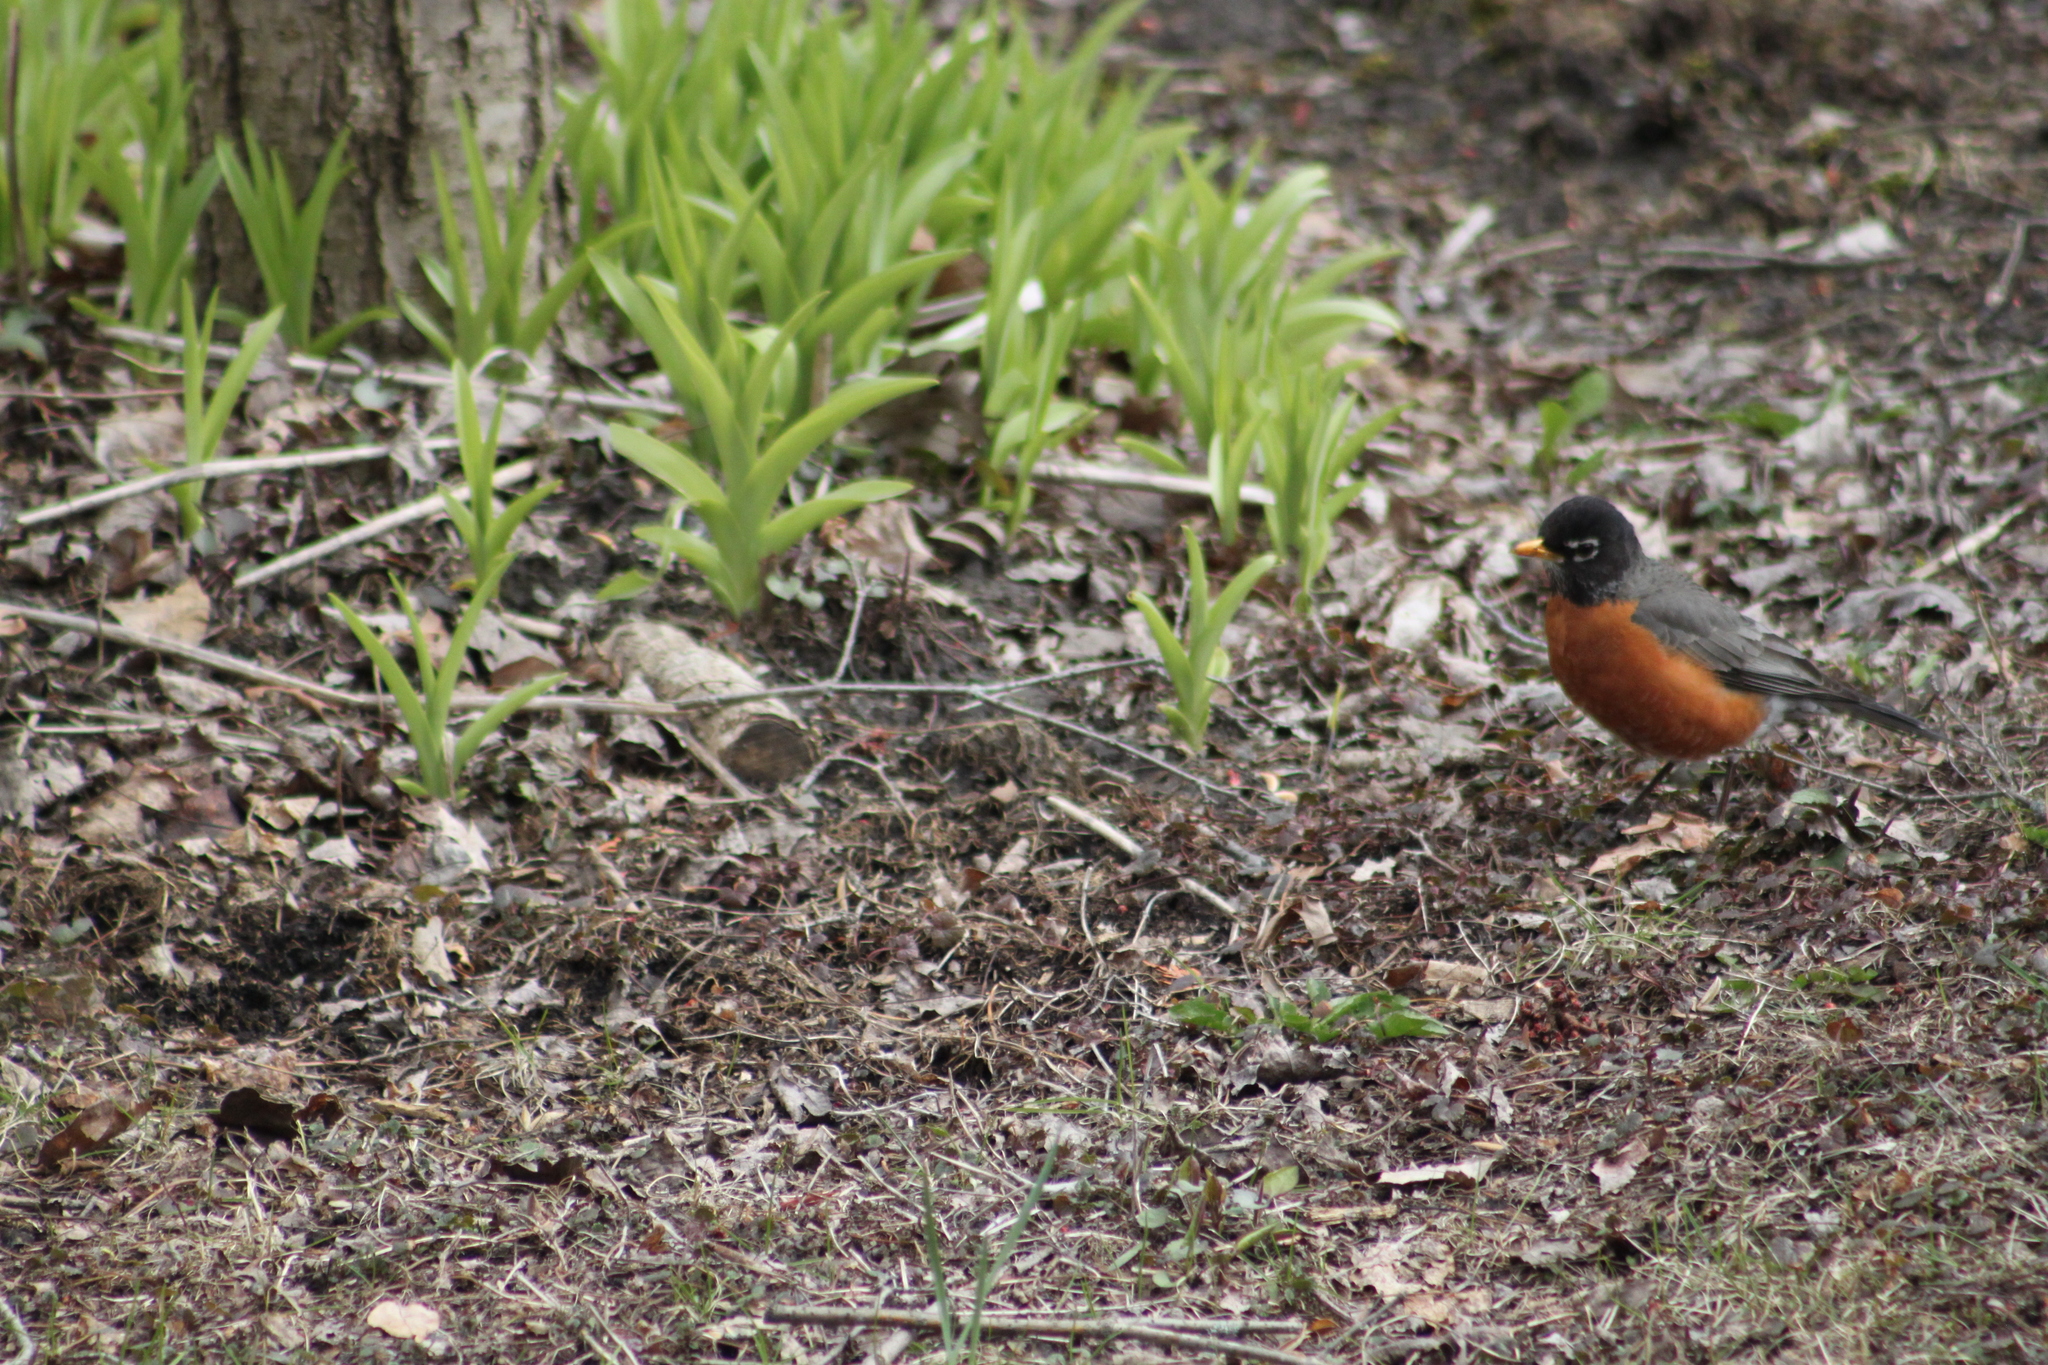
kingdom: Animalia
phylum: Chordata
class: Aves
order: Passeriformes
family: Turdidae
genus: Turdus
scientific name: Turdus migratorius
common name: American robin
